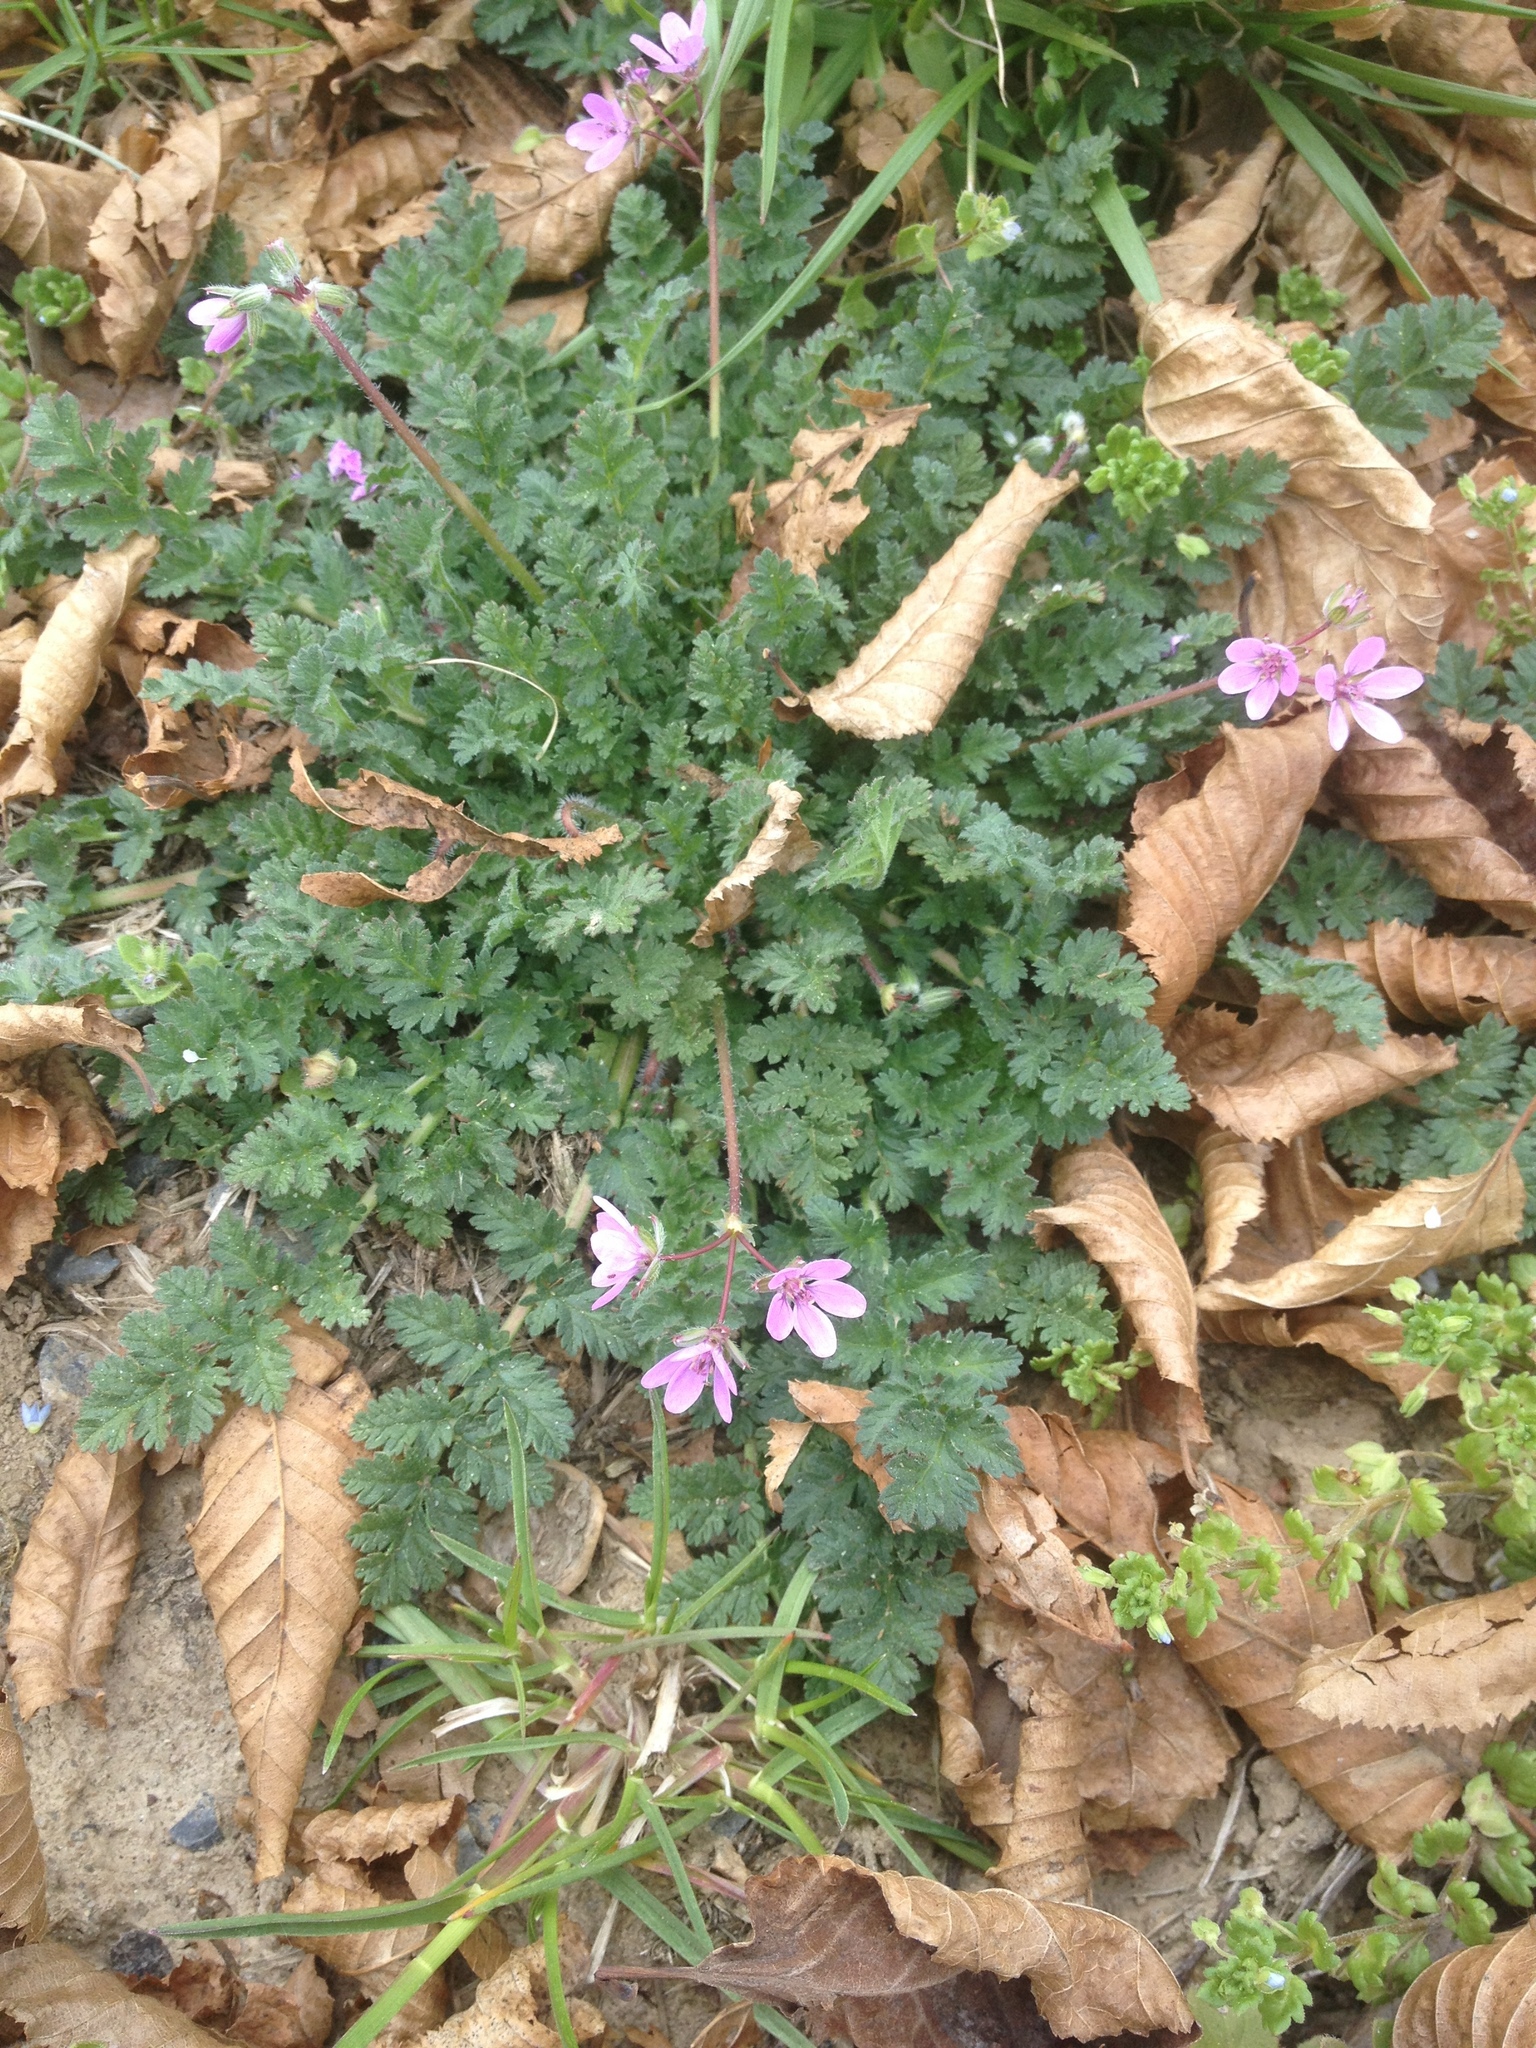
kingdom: Plantae
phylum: Tracheophyta
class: Magnoliopsida
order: Geraniales
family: Geraniaceae
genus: Erodium
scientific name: Erodium cicutarium
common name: Common stork's-bill
